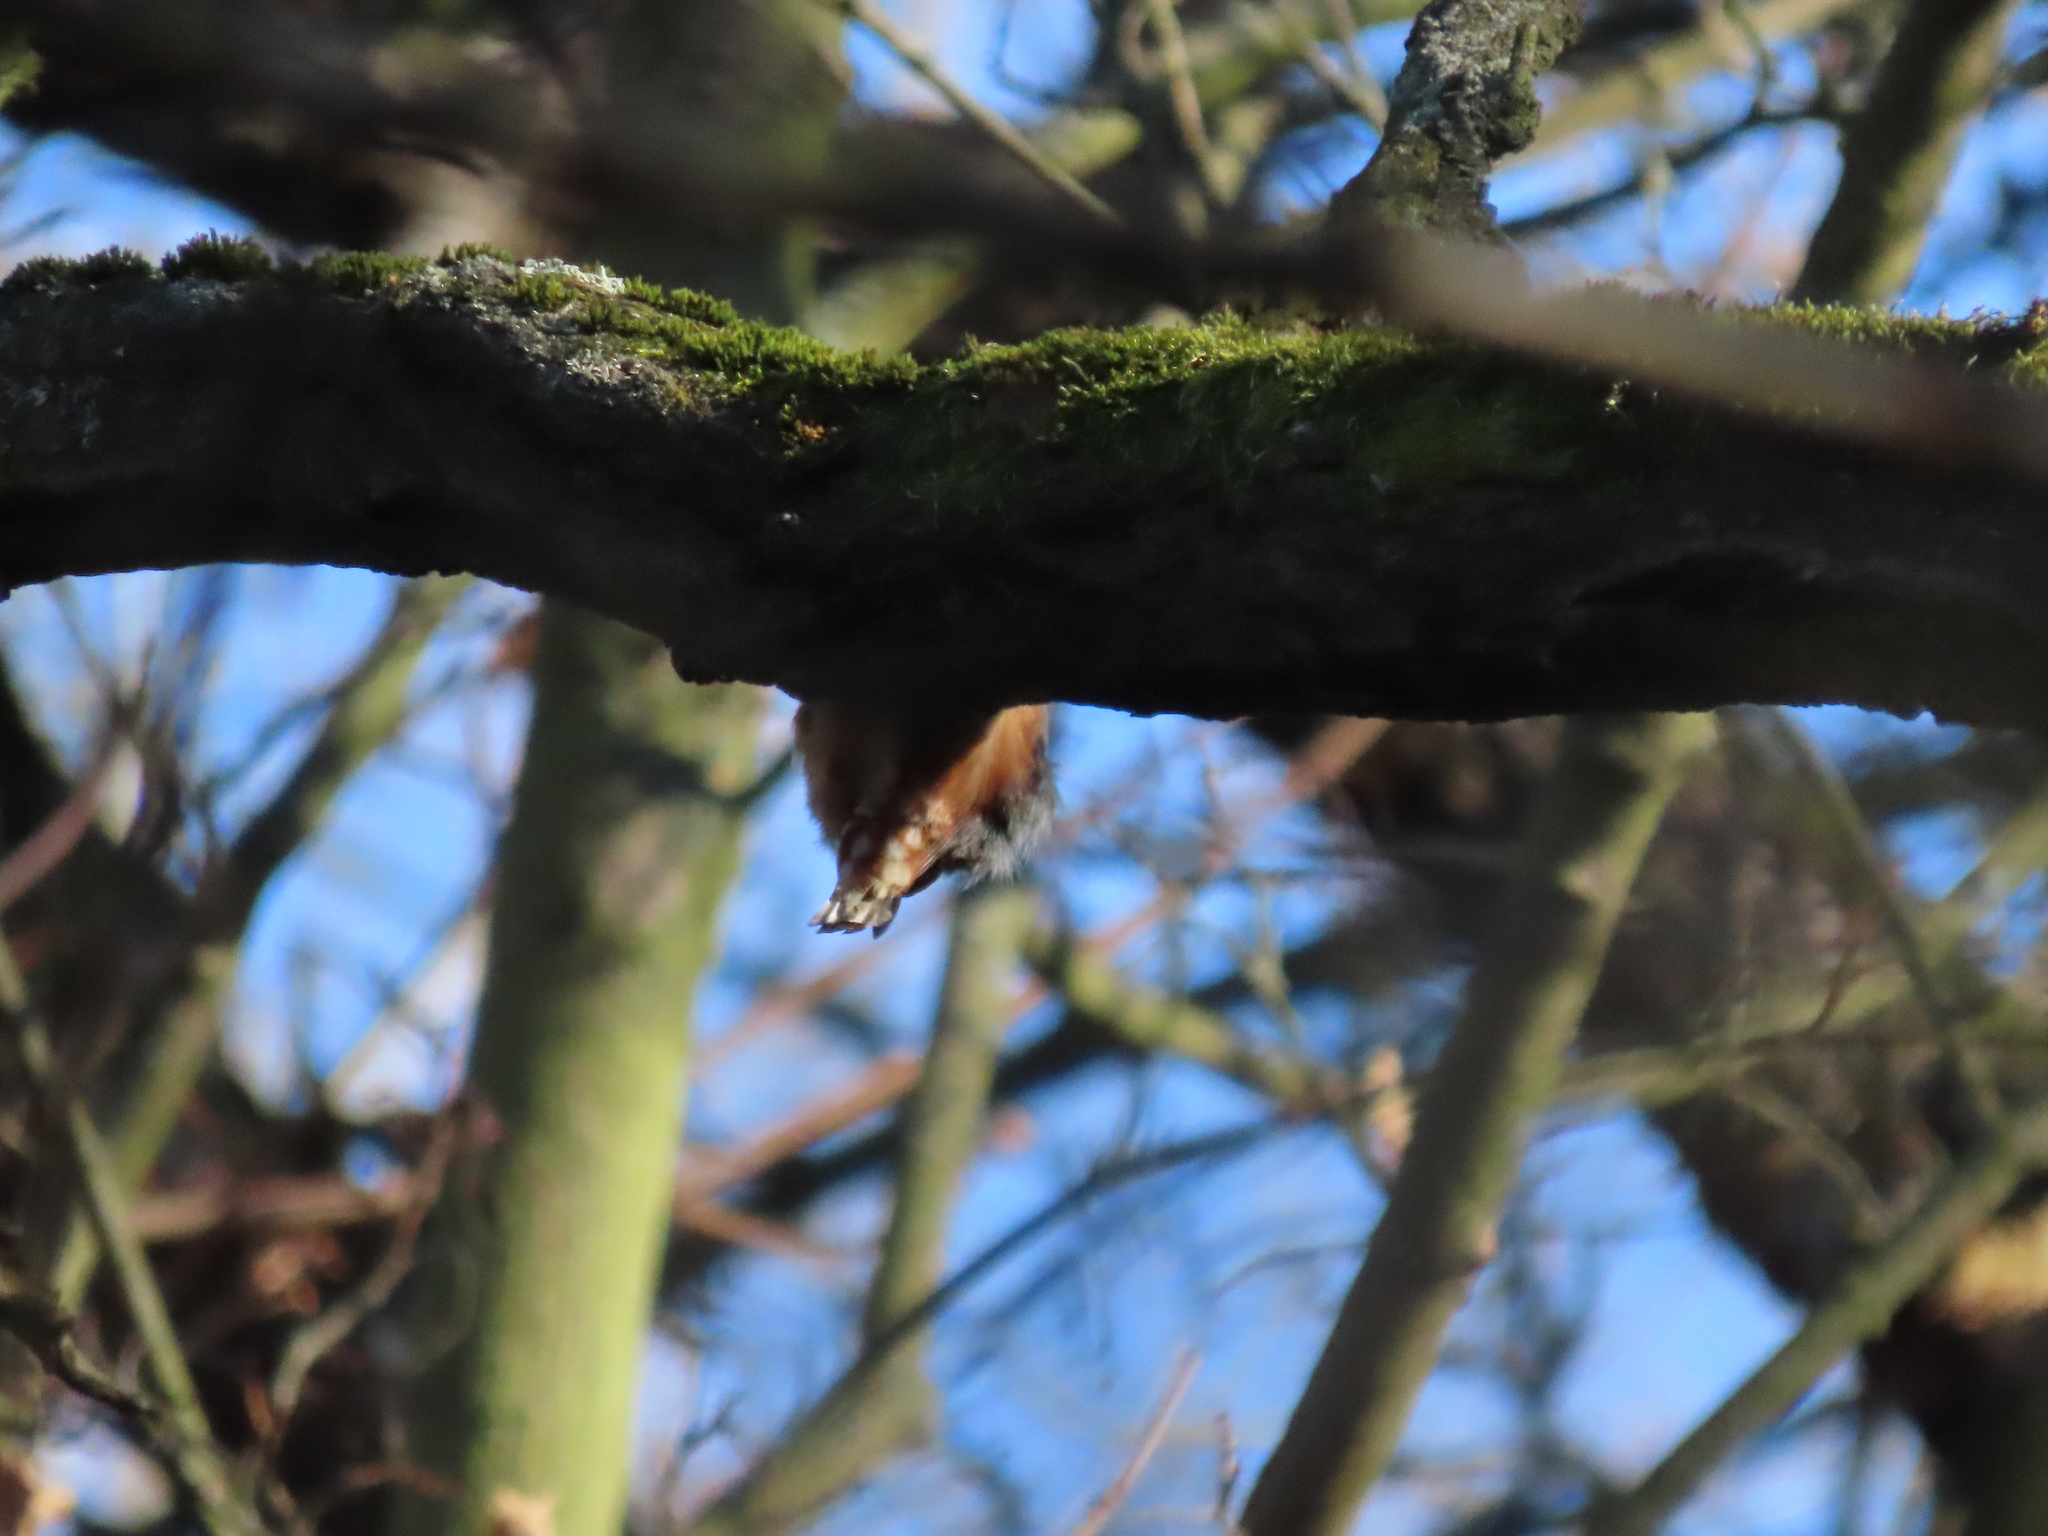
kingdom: Animalia
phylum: Chordata
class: Aves
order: Passeriformes
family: Sittidae
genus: Sitta
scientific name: Sitta europaea
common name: Eurasian nuthatch
